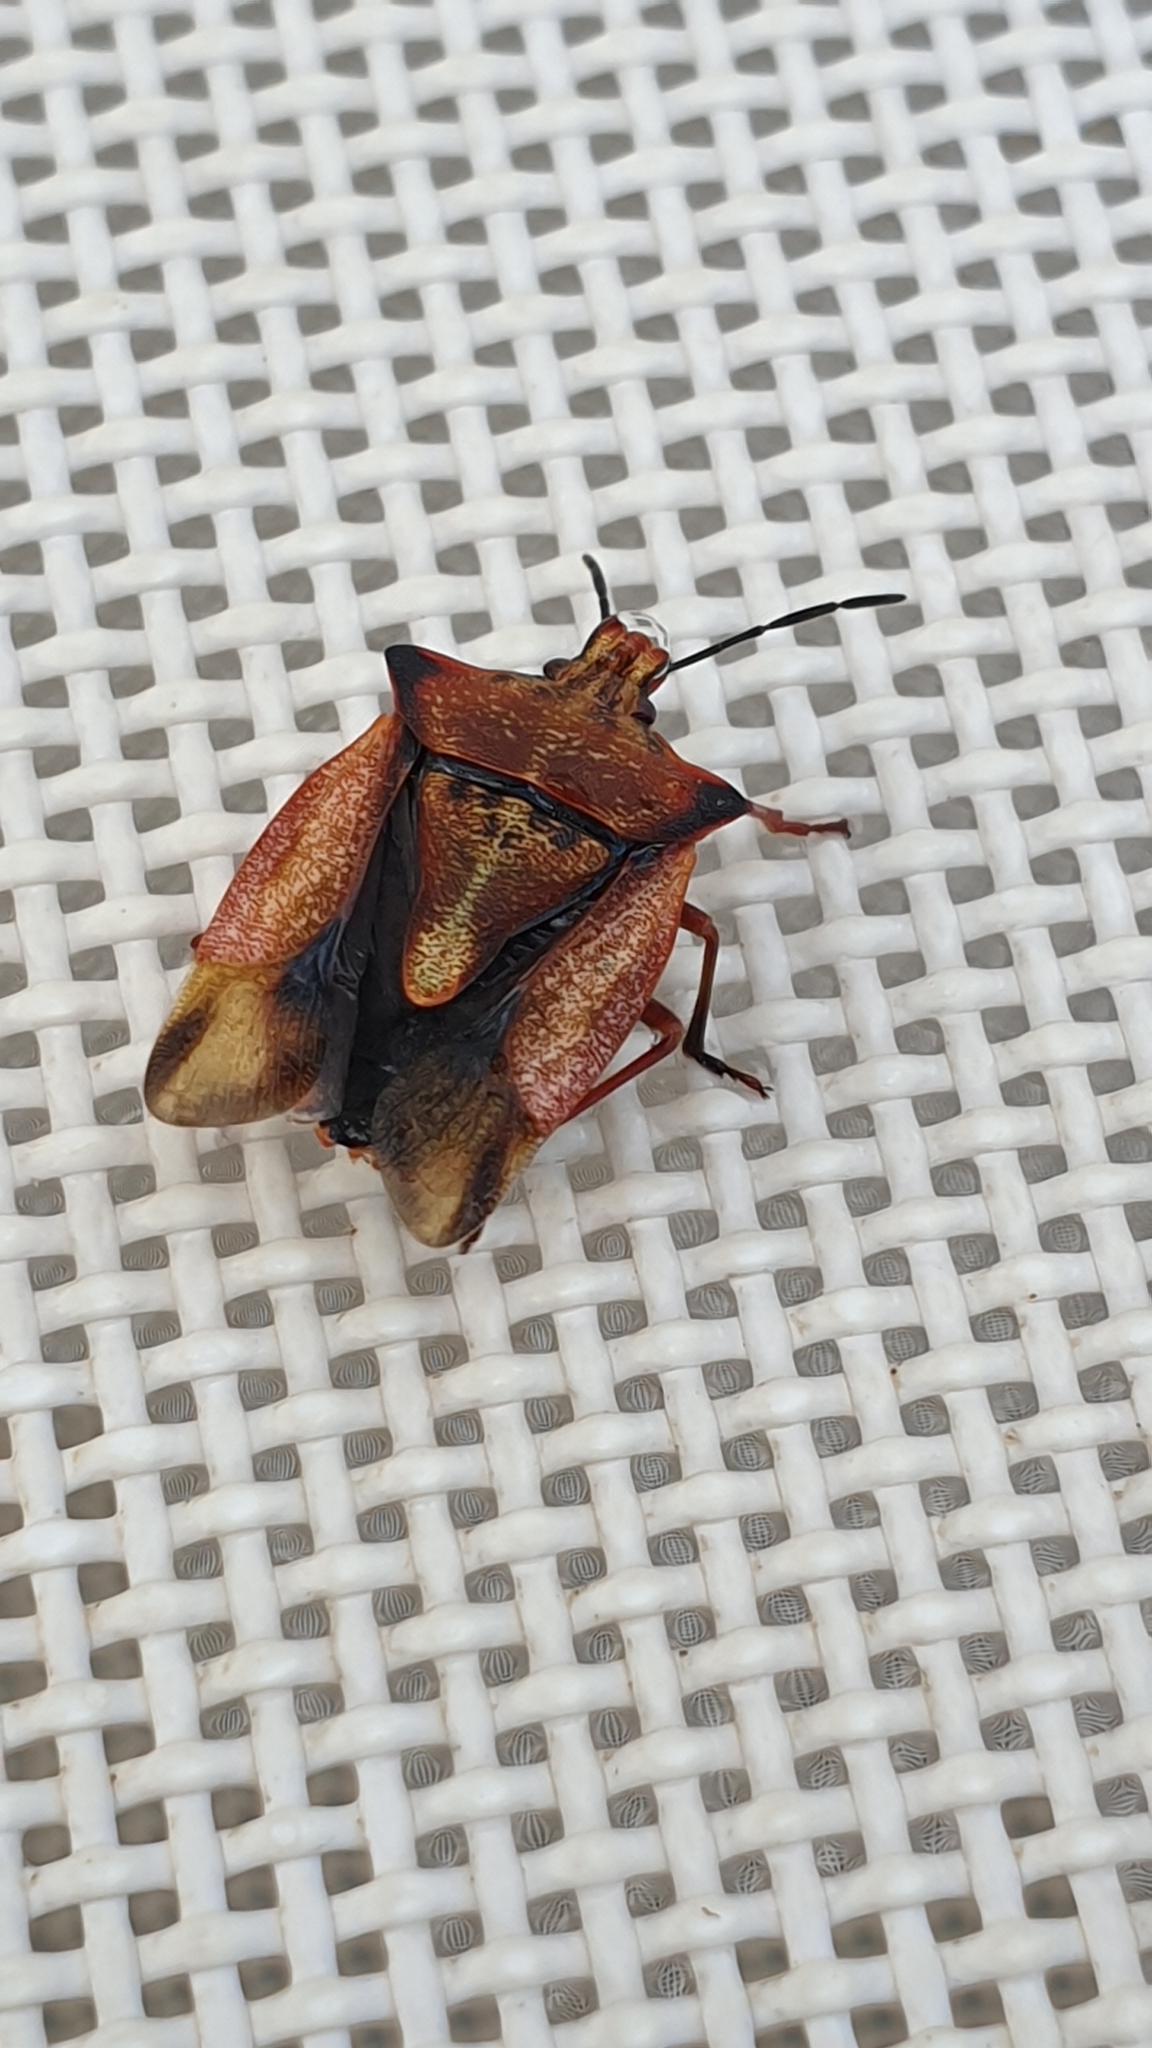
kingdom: Animalia
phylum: Arthropoda
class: Insecta
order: Hemiptera
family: Pentatomidae
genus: Carpocoris
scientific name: Carpocoris mediterraneus
